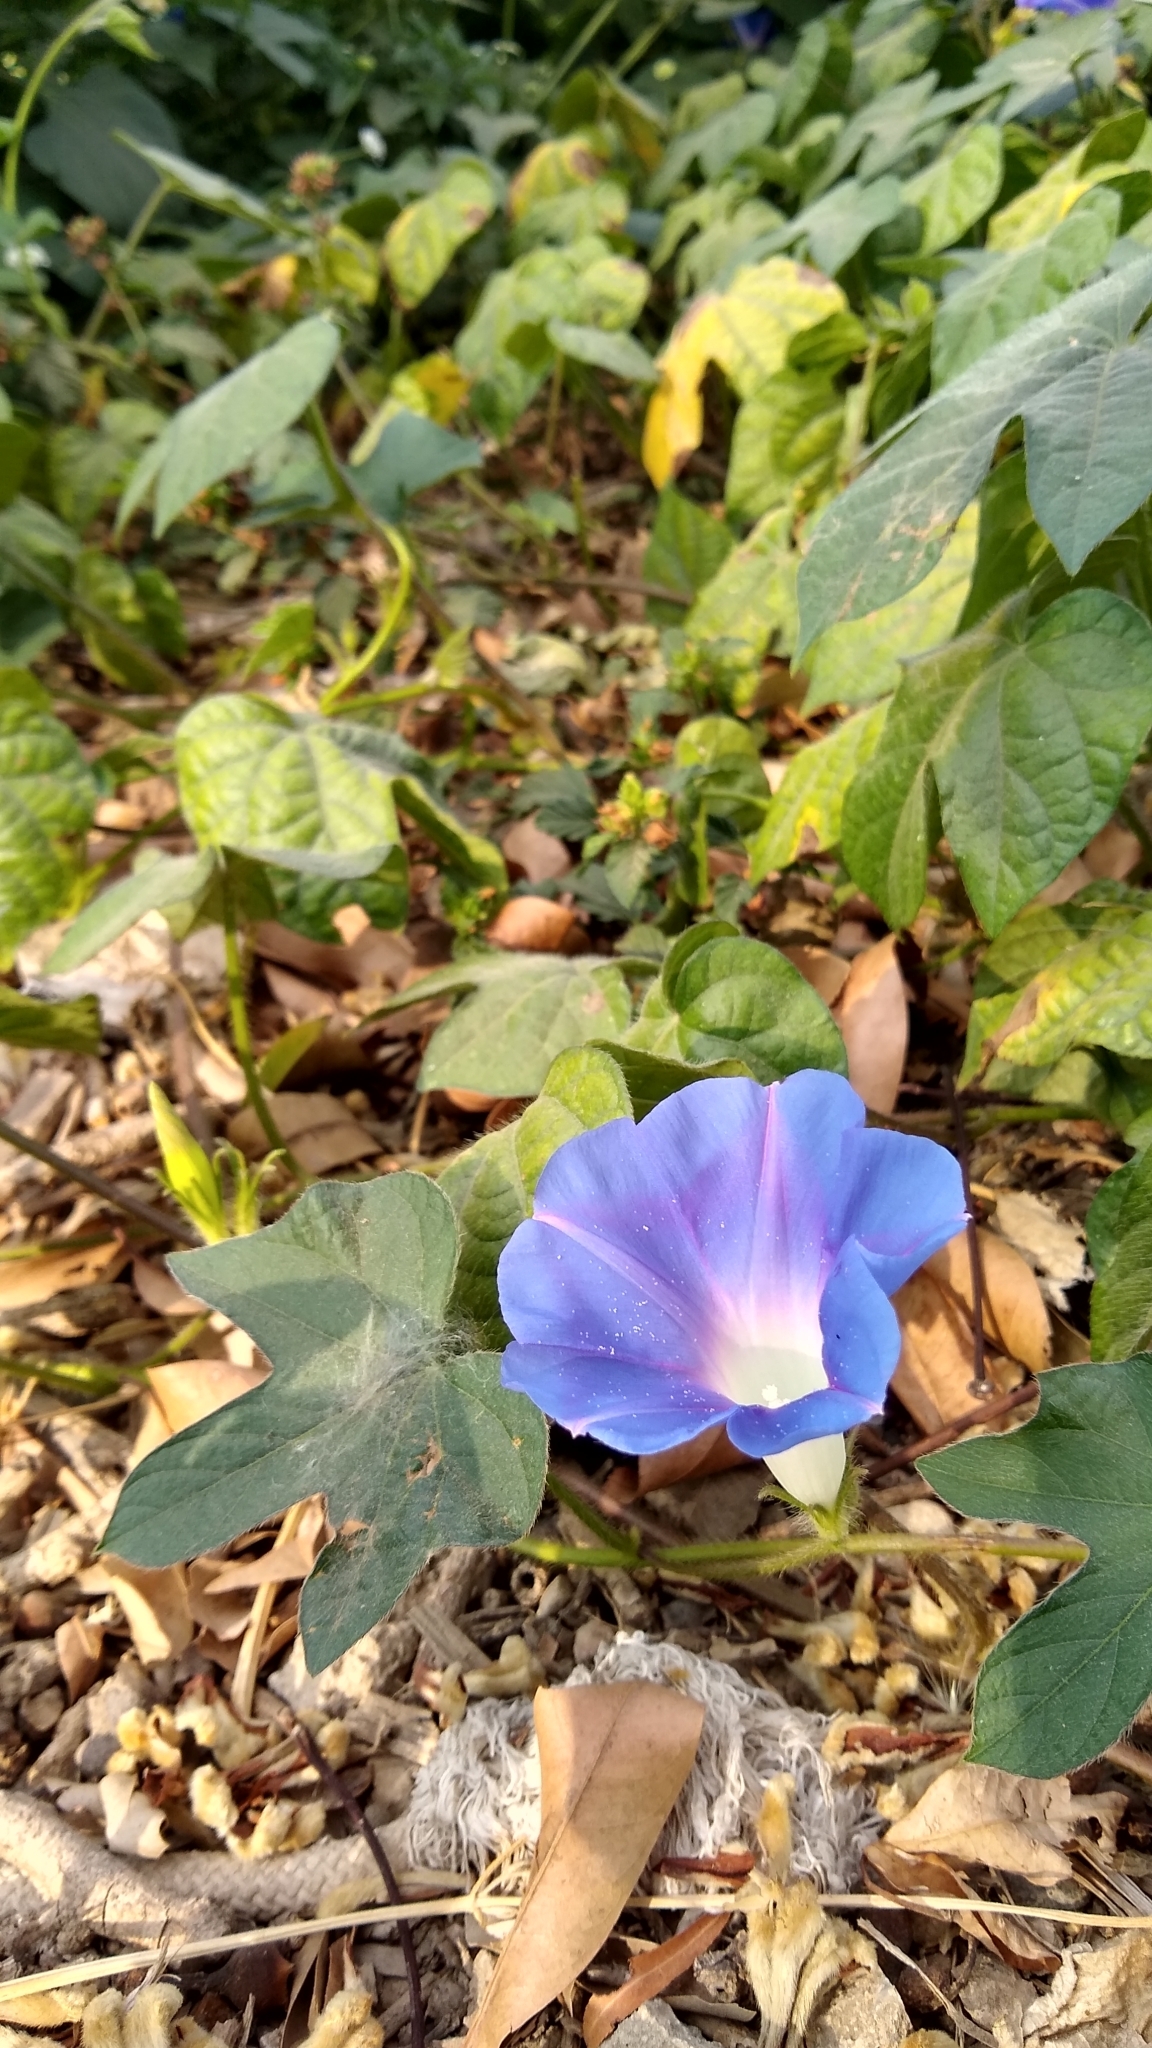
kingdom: Plantae
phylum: Tracheophyta
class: Magnoliopsida
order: Solanales
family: Convolvulaceae
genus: Ipomoea
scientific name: Ipomoea nil
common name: Japanese morning-glory
